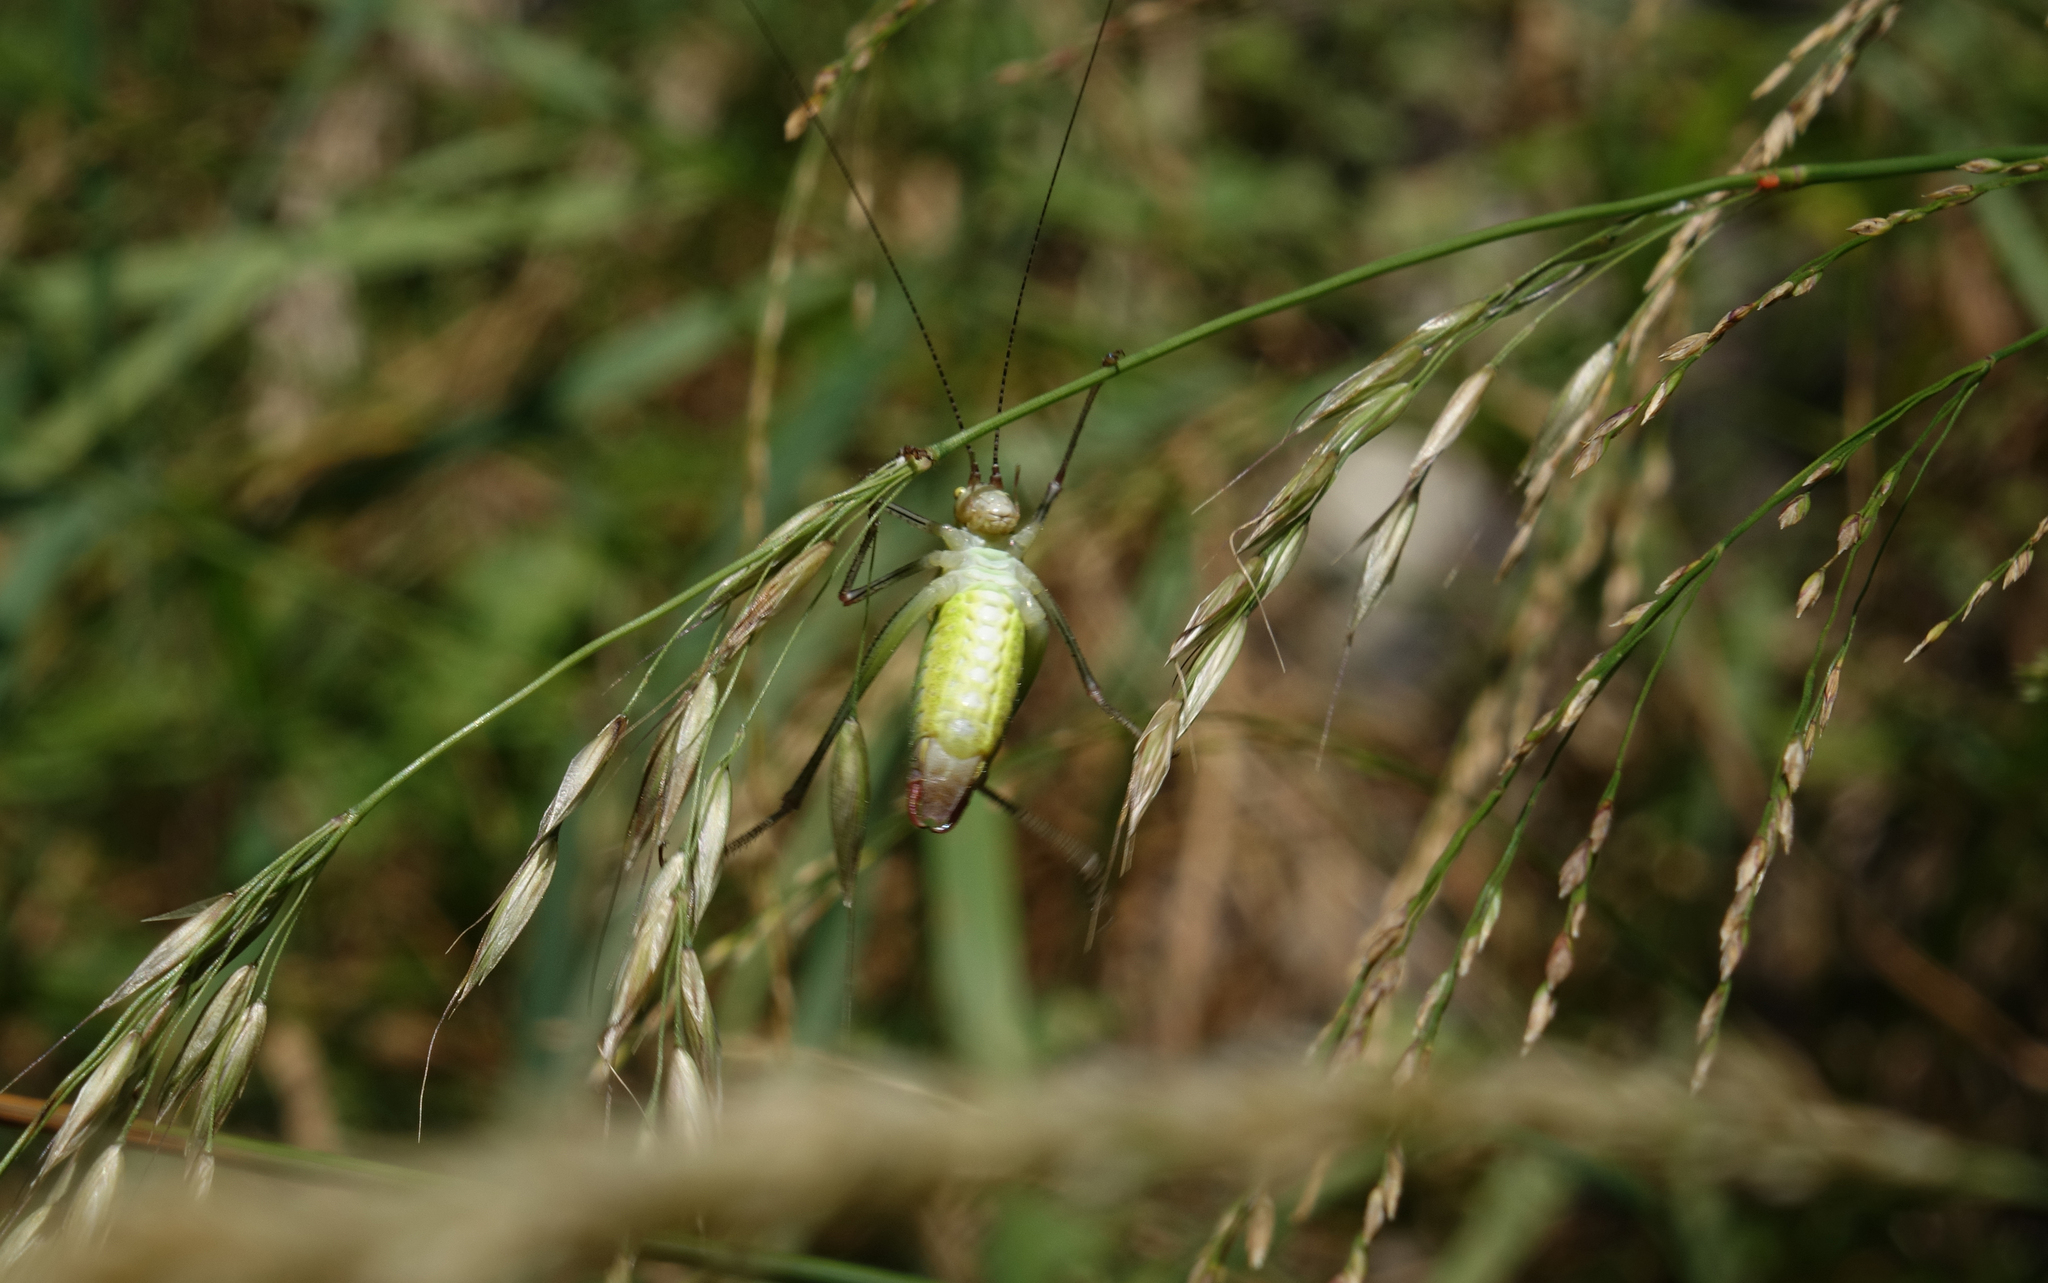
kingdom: Plantae
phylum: Tracheophyta
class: Liliopsida
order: Poales
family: Poaceae
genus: Arrhenatherum
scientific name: Arrhenatherum elatius
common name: Tall oatgrass
